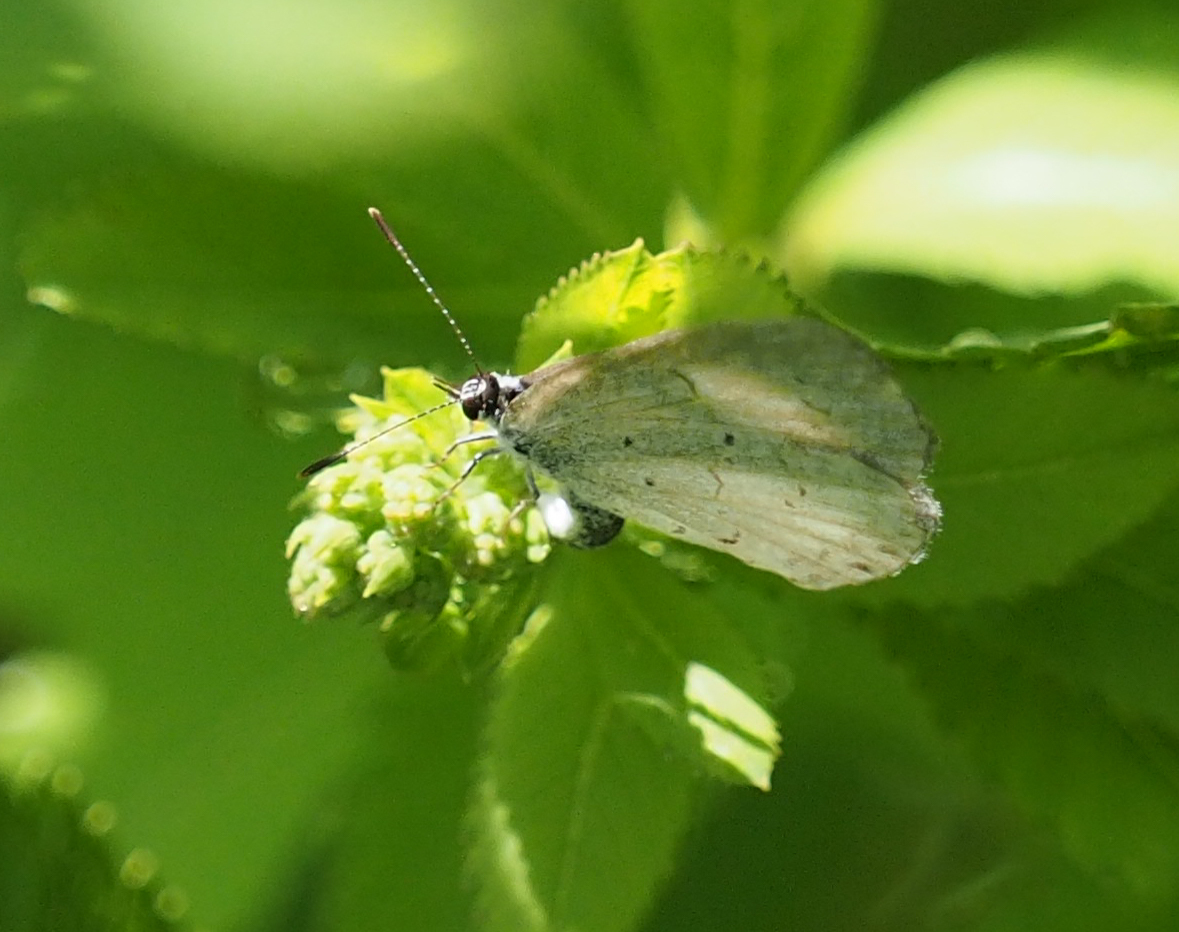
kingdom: Animalia
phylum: Arthropoda
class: Insecta
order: Lepidoptera
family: Lycaenidae
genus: Cyaniris
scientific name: Cyaniris neglecta
